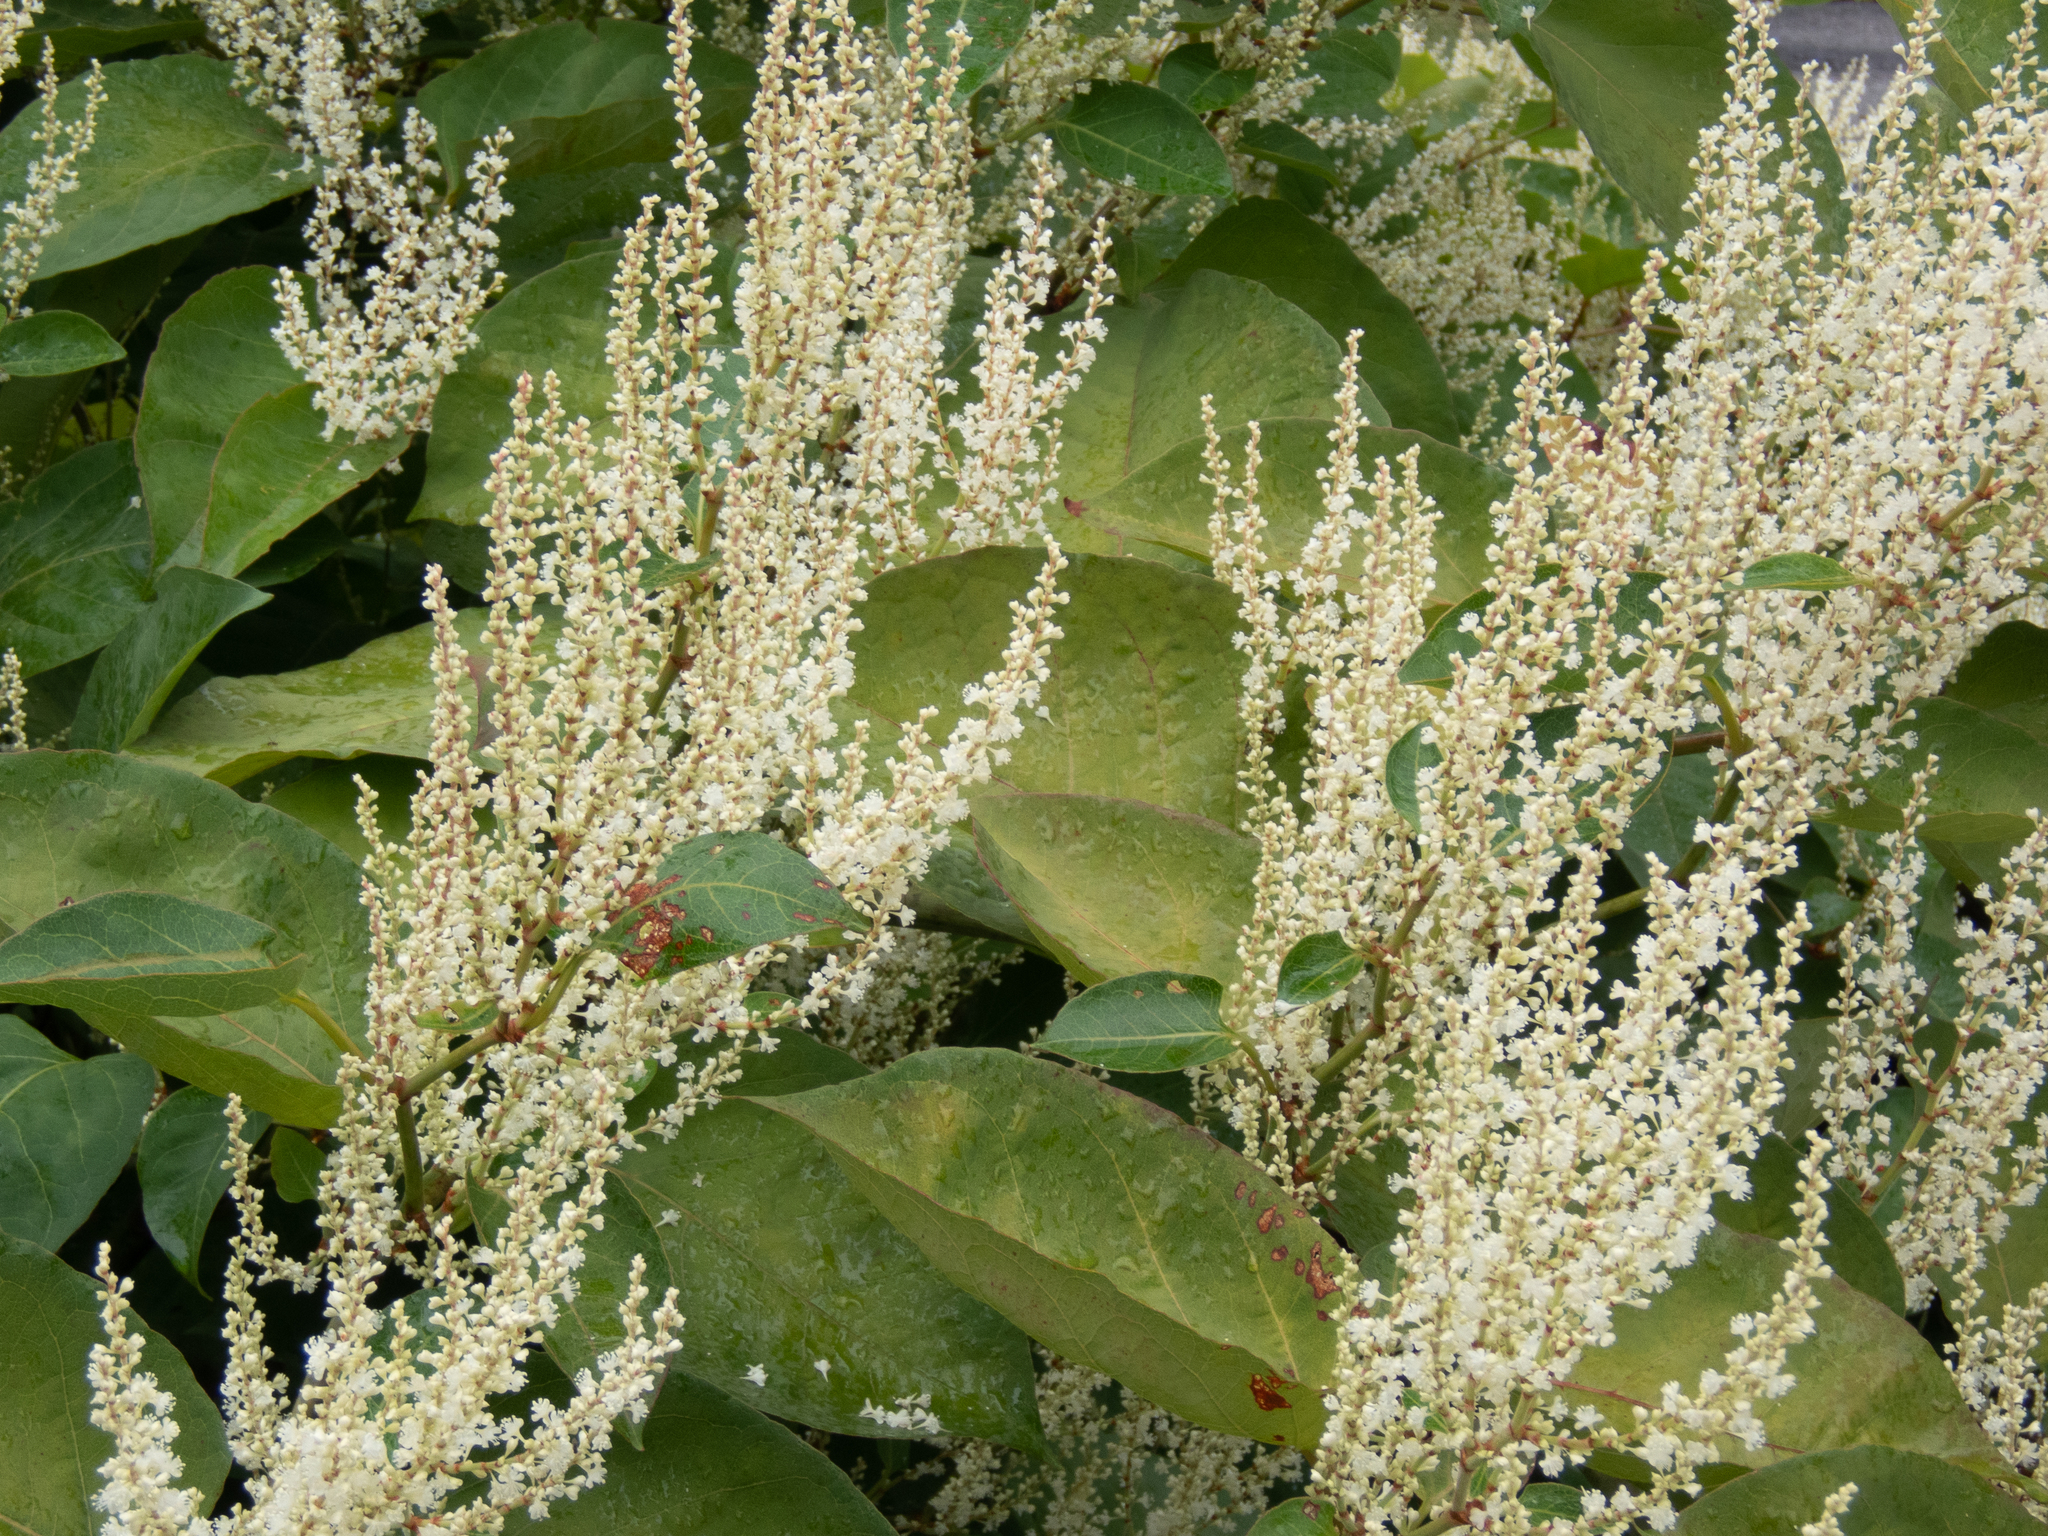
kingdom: Plantae
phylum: Tracheophyta
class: Magnoliopsida
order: Caryophyllales
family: Polygonaceae
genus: Reynoutria
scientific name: Reynoutria japonica
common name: Japanese knotweed
